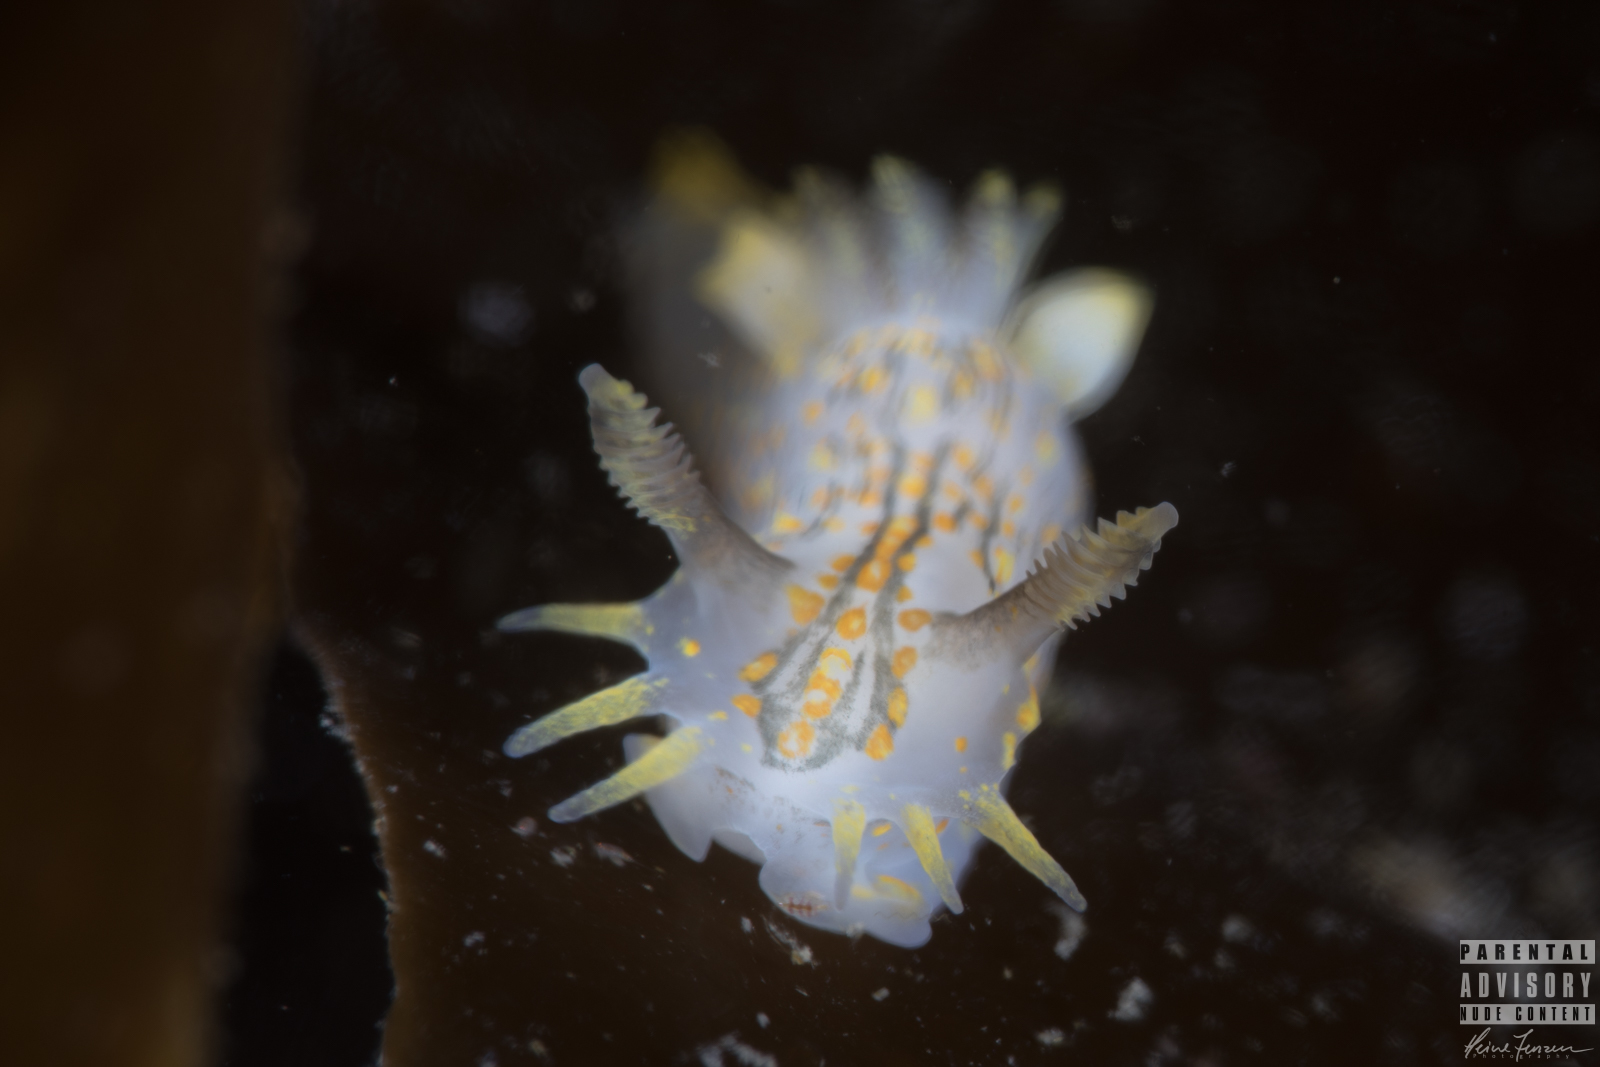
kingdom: Animalia
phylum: Mollusca
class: Gastropoda
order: Nudibranchia
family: Polyceridae
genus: Polycera
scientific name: Polycera quadrilineata
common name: Four-striped polycera
